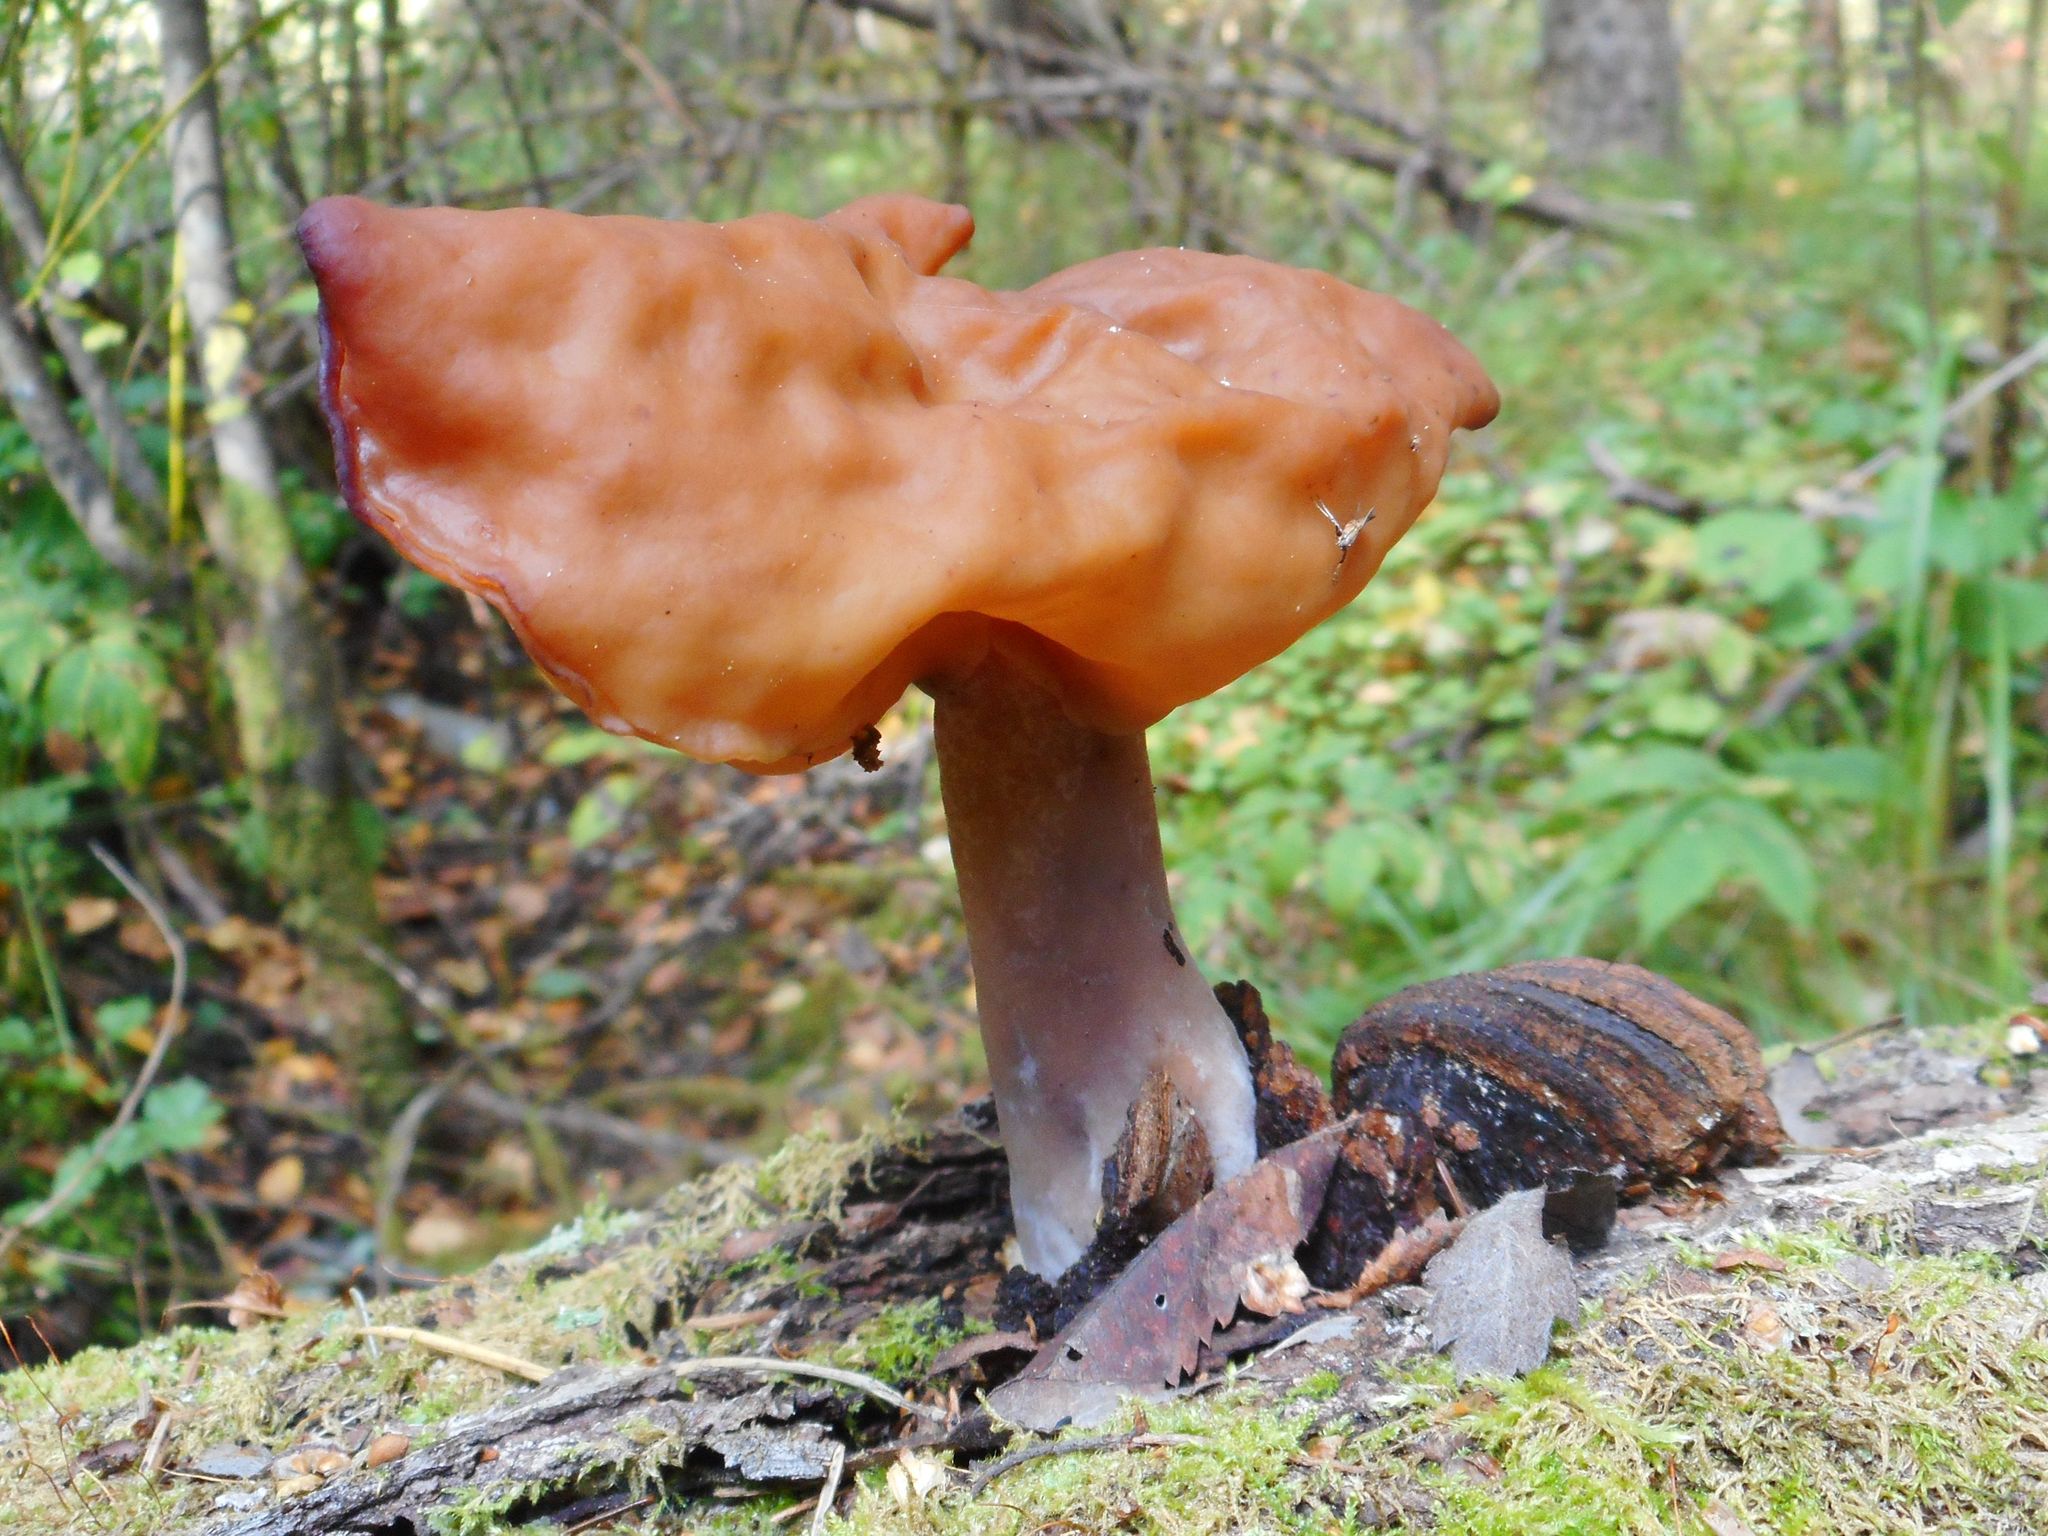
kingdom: Fungi
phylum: Ascomycota
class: Pezizomycetes
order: Pezizales
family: Discinaceae
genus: Gyromitra
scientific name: Gyromitra infula
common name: Pouched false morel
